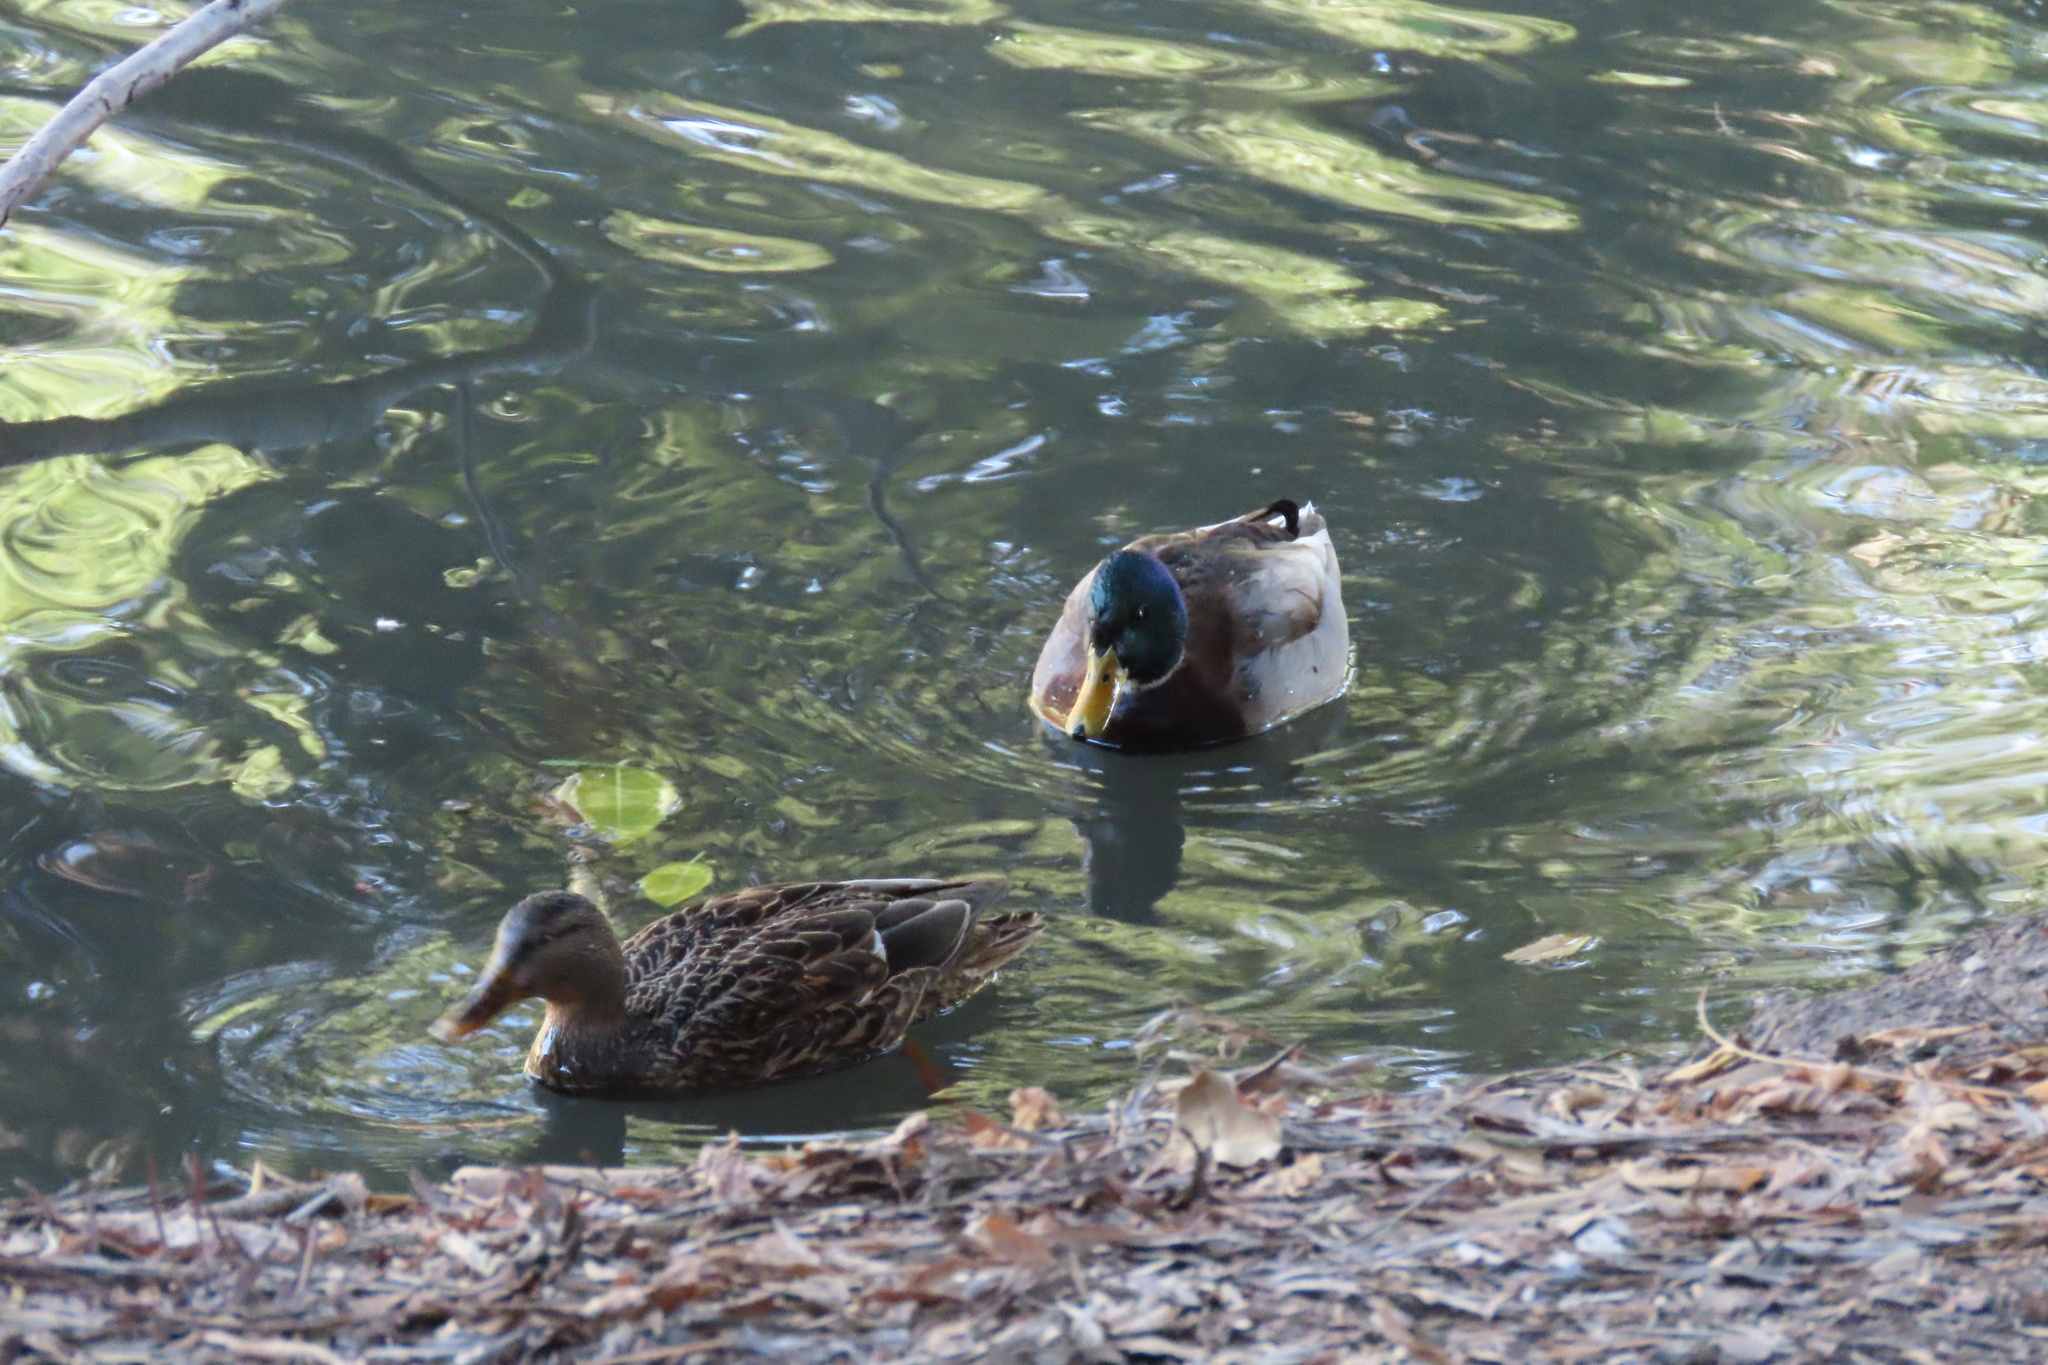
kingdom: Animalia
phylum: Chordata
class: Aves
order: Anseriformes
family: Anatidae
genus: Anas
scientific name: Anas platyrhynchos
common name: Mallard
